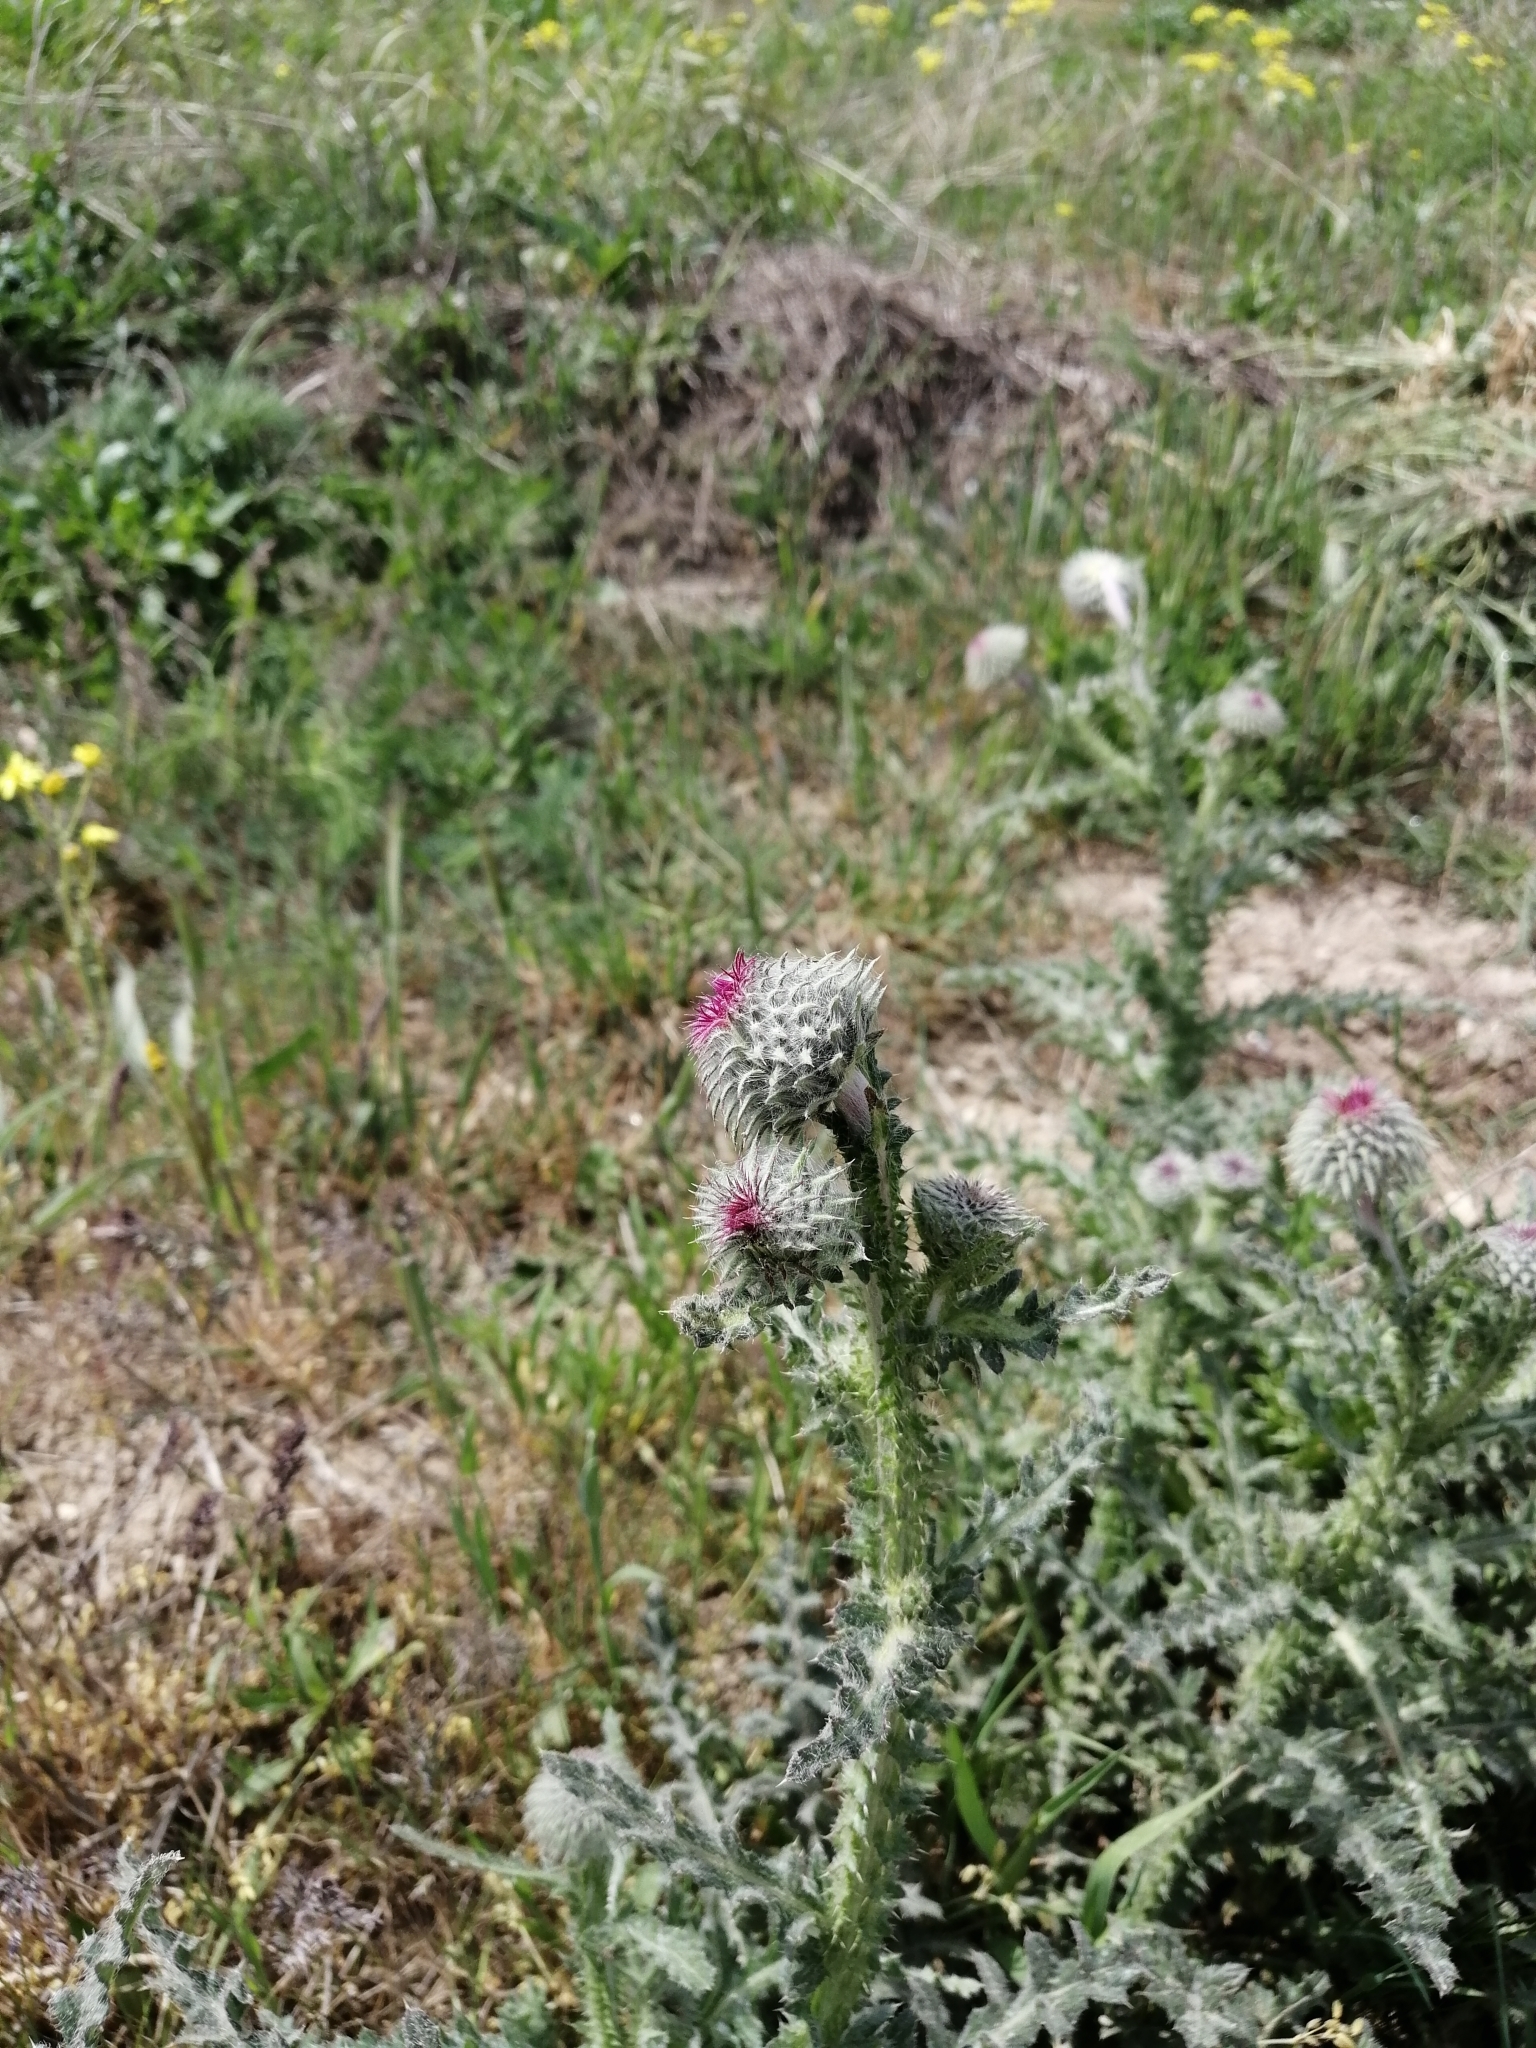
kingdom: Plantae
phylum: Tracheophyta
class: Magnoliopsida
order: Asterales
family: Asteraceae
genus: Carduus
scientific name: Carduus uncinatus
